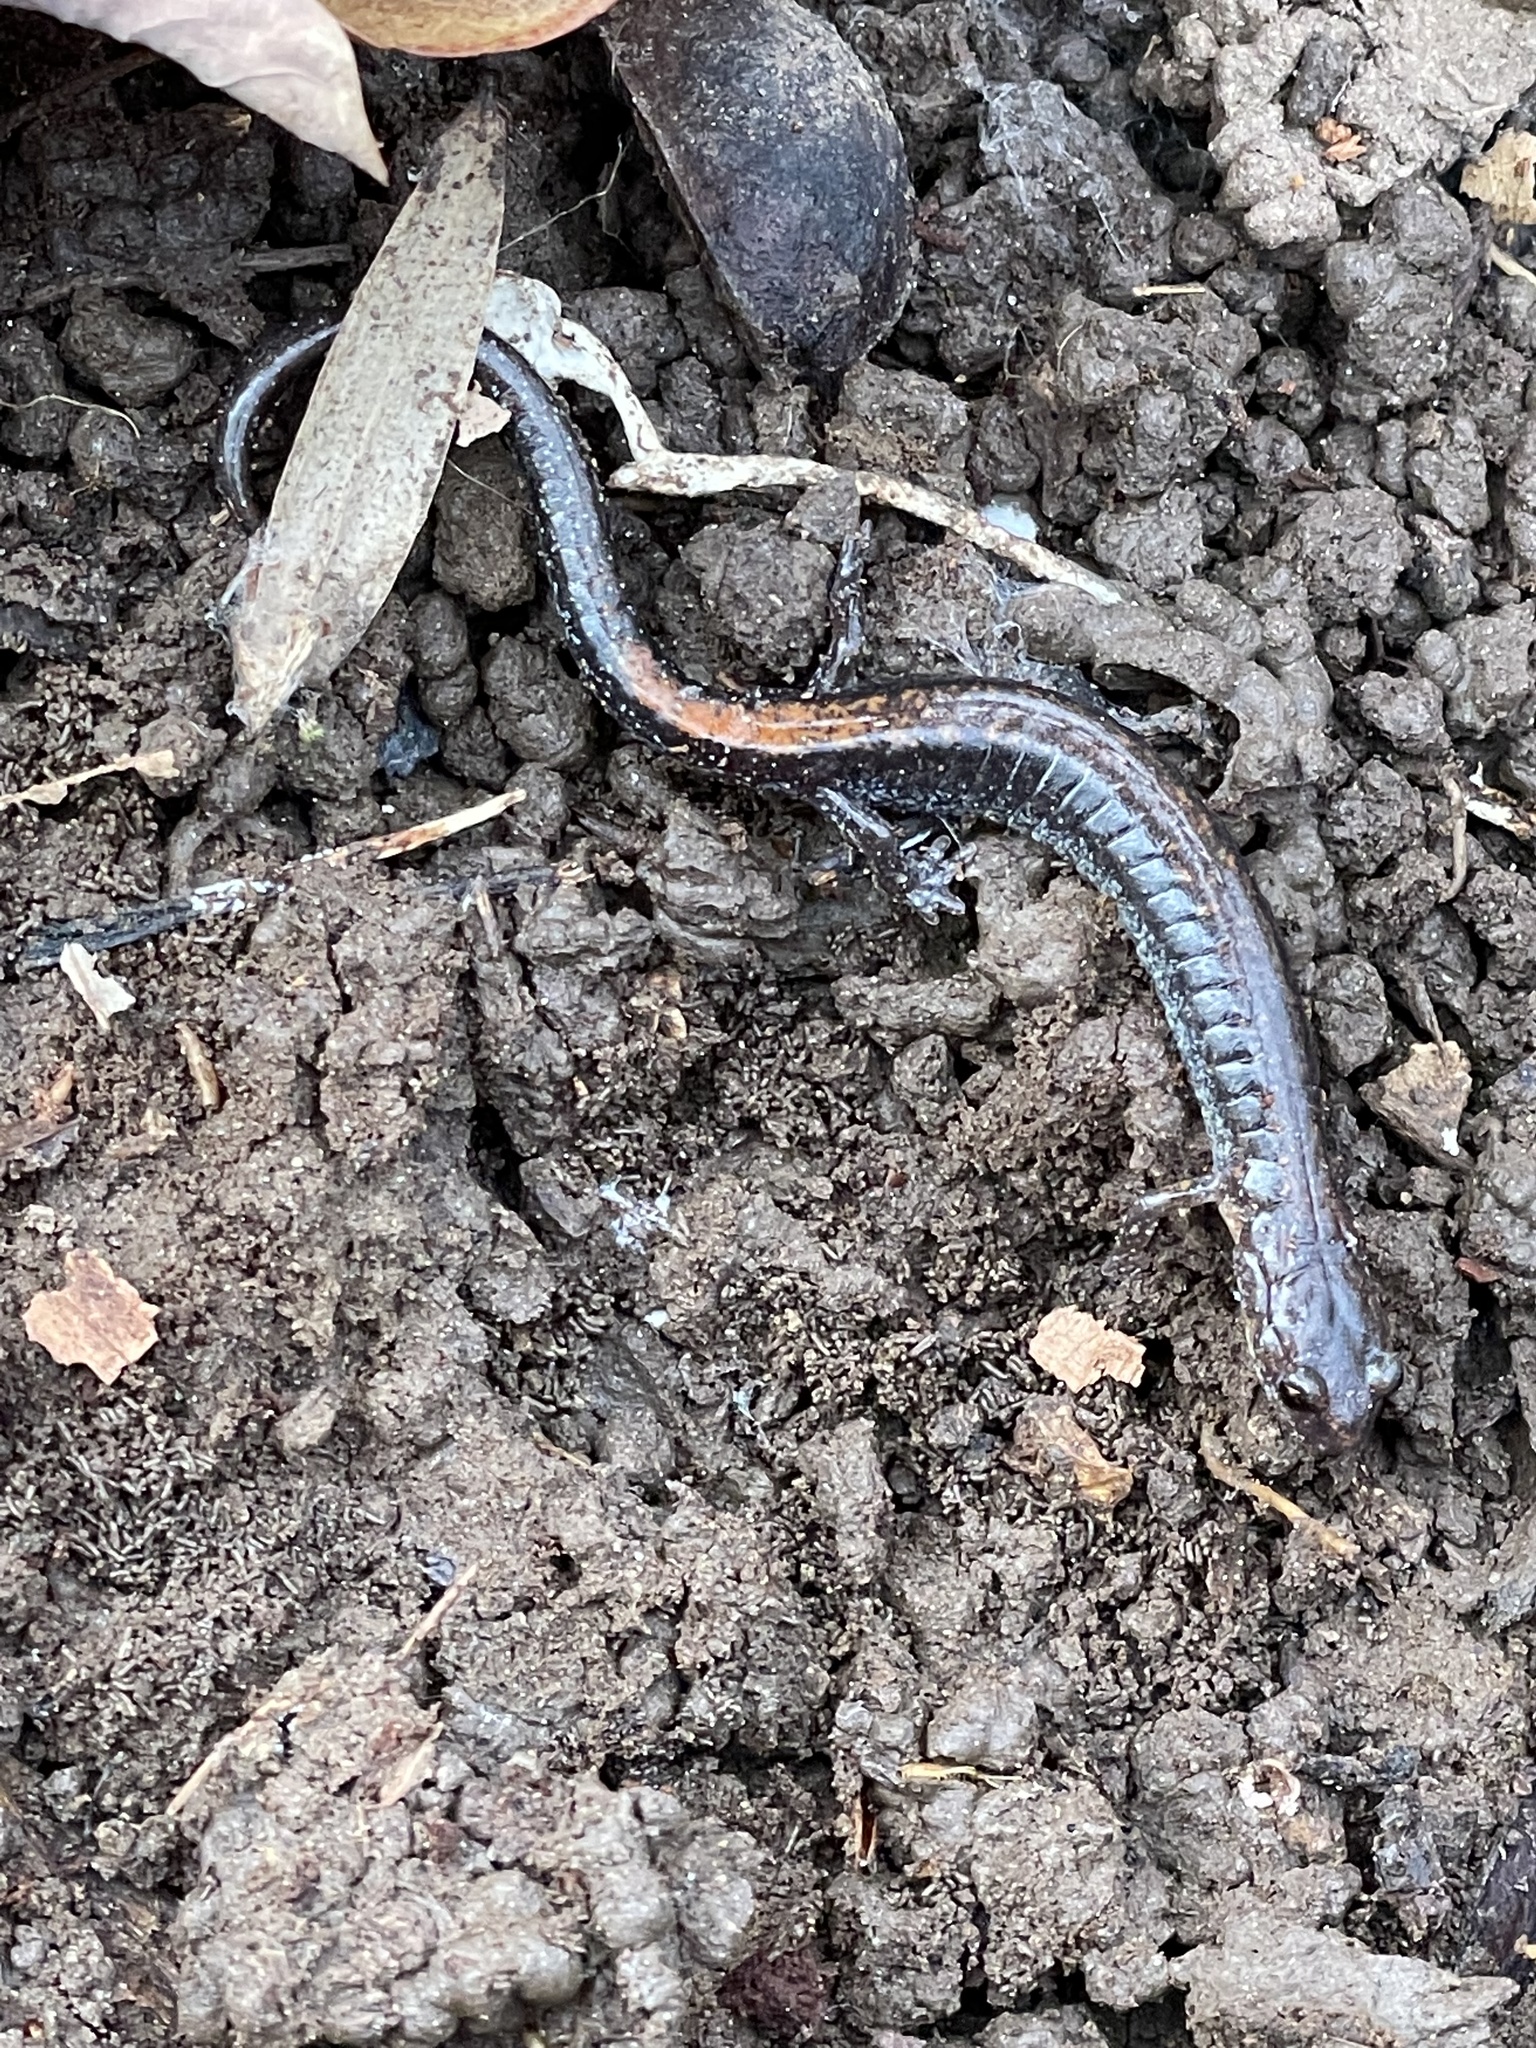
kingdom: Animalia
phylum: Chordata
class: Amphibia
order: Caudata
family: Plethodontidae
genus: Plethodon
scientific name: Plethodon cinereus
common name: Redback salamander
